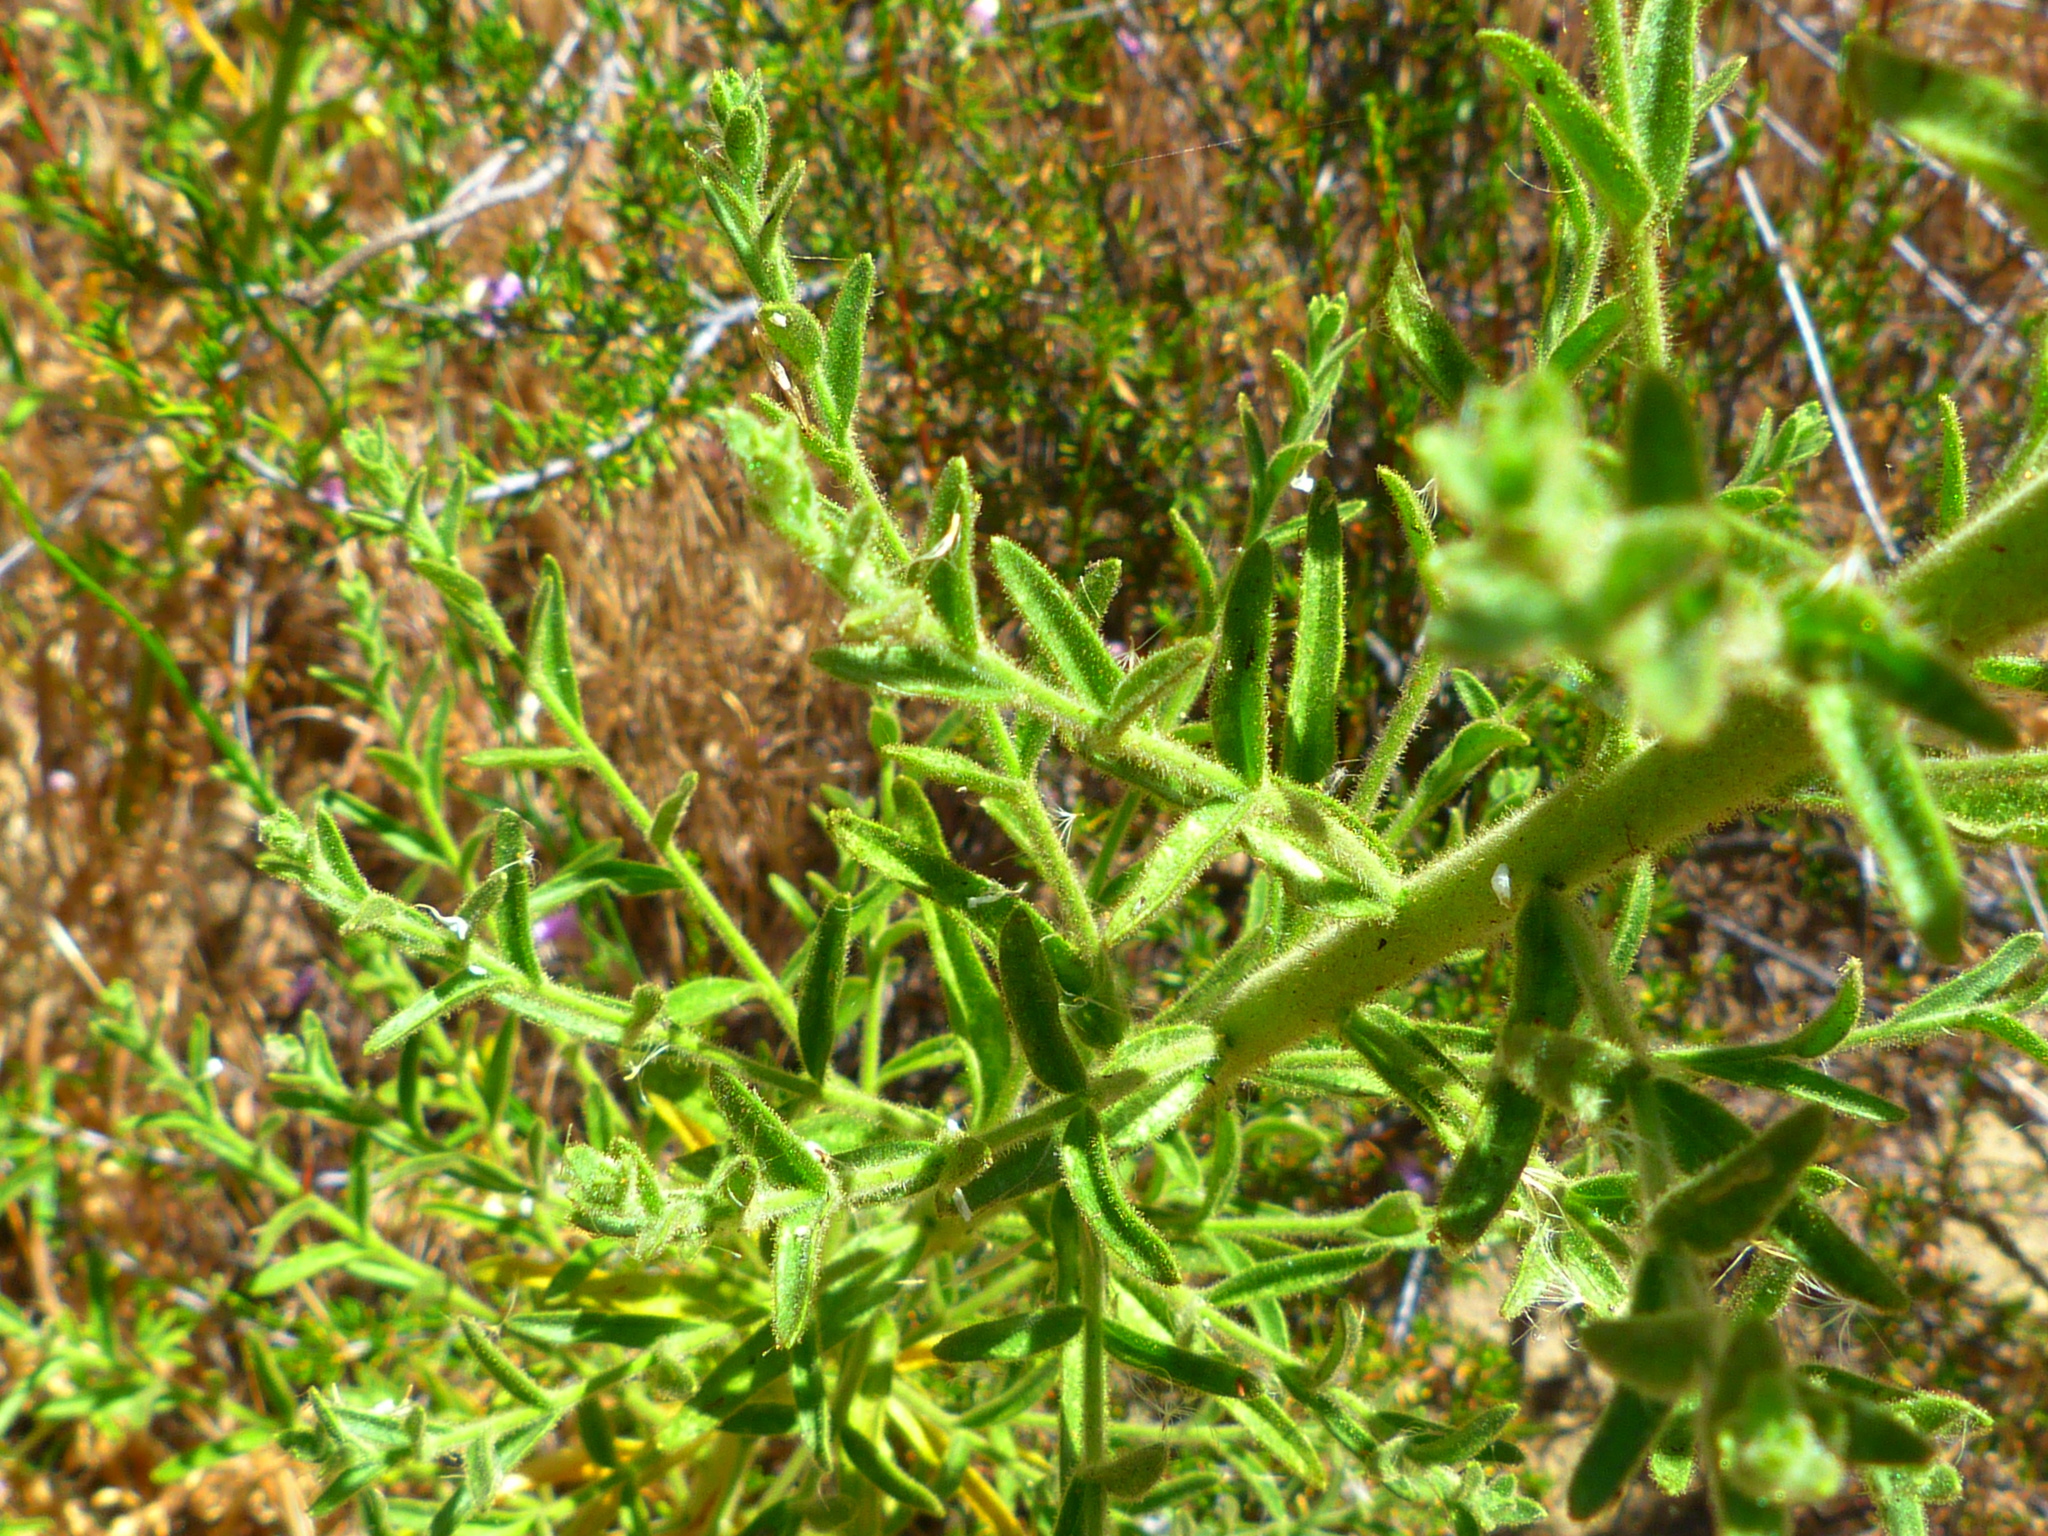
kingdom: Plantae
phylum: Tracheophyta
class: Magnoliopsida
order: Lamiales
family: Plantaginaceae
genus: Sairocarpus
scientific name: Sairocarpus multiflorus
